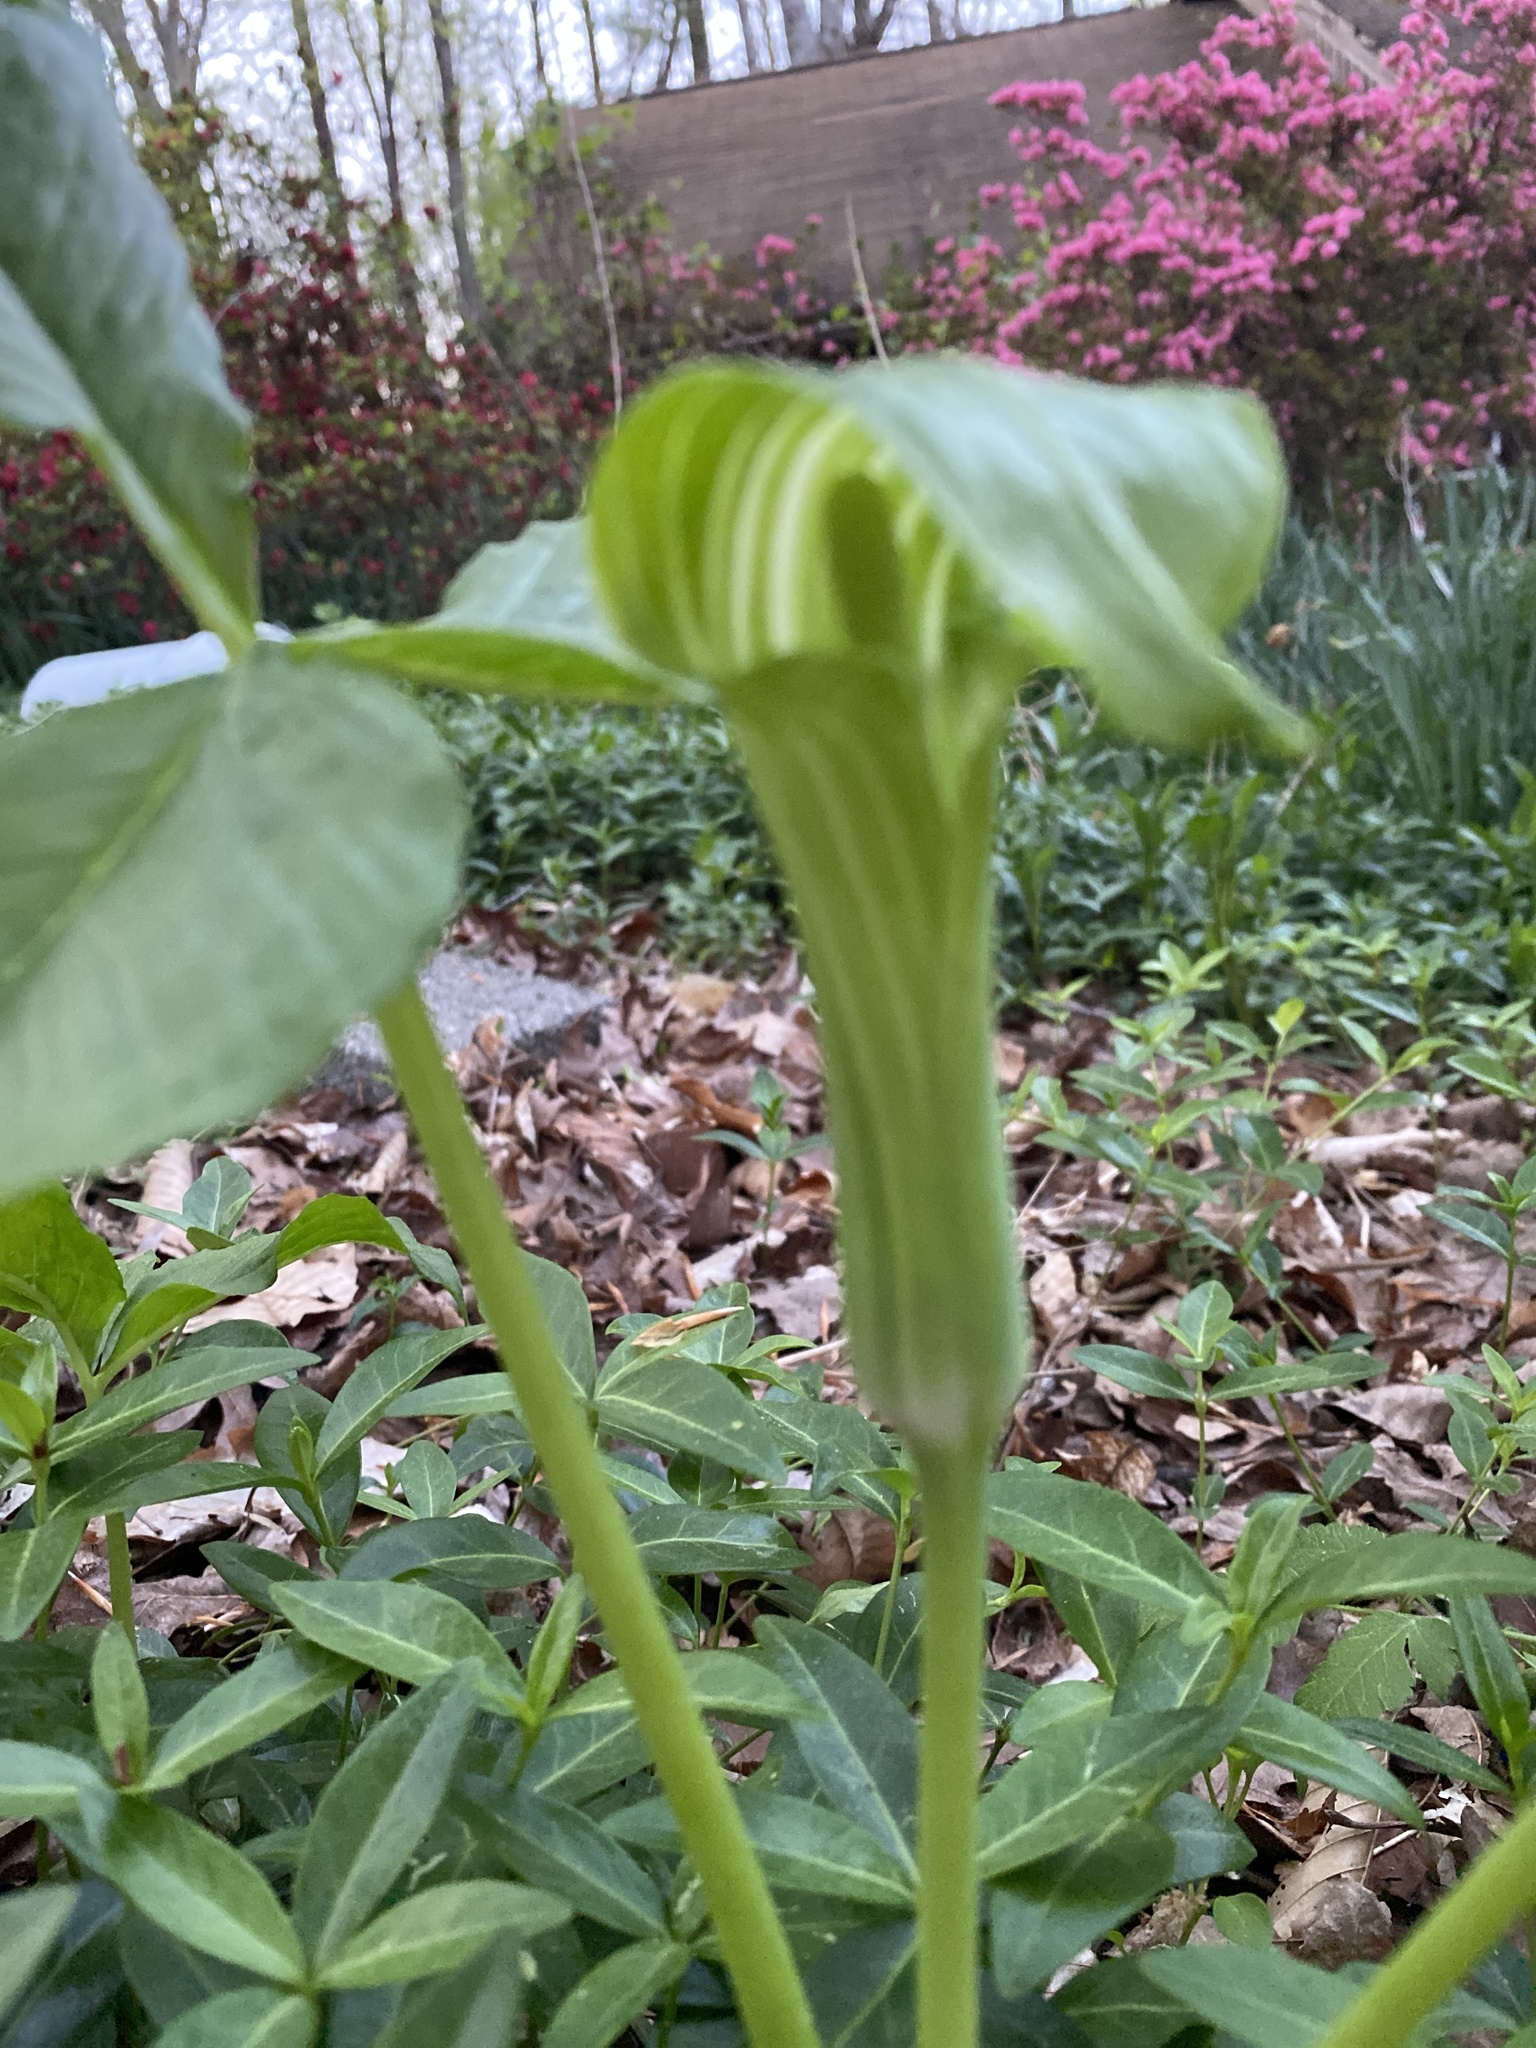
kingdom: Plantae
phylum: Tracheophyta
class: Liliopsida
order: Alismatales
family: Araceae
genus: Arisaema
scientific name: Arisaema triphyllum
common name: Jack-in-the-pulpit
